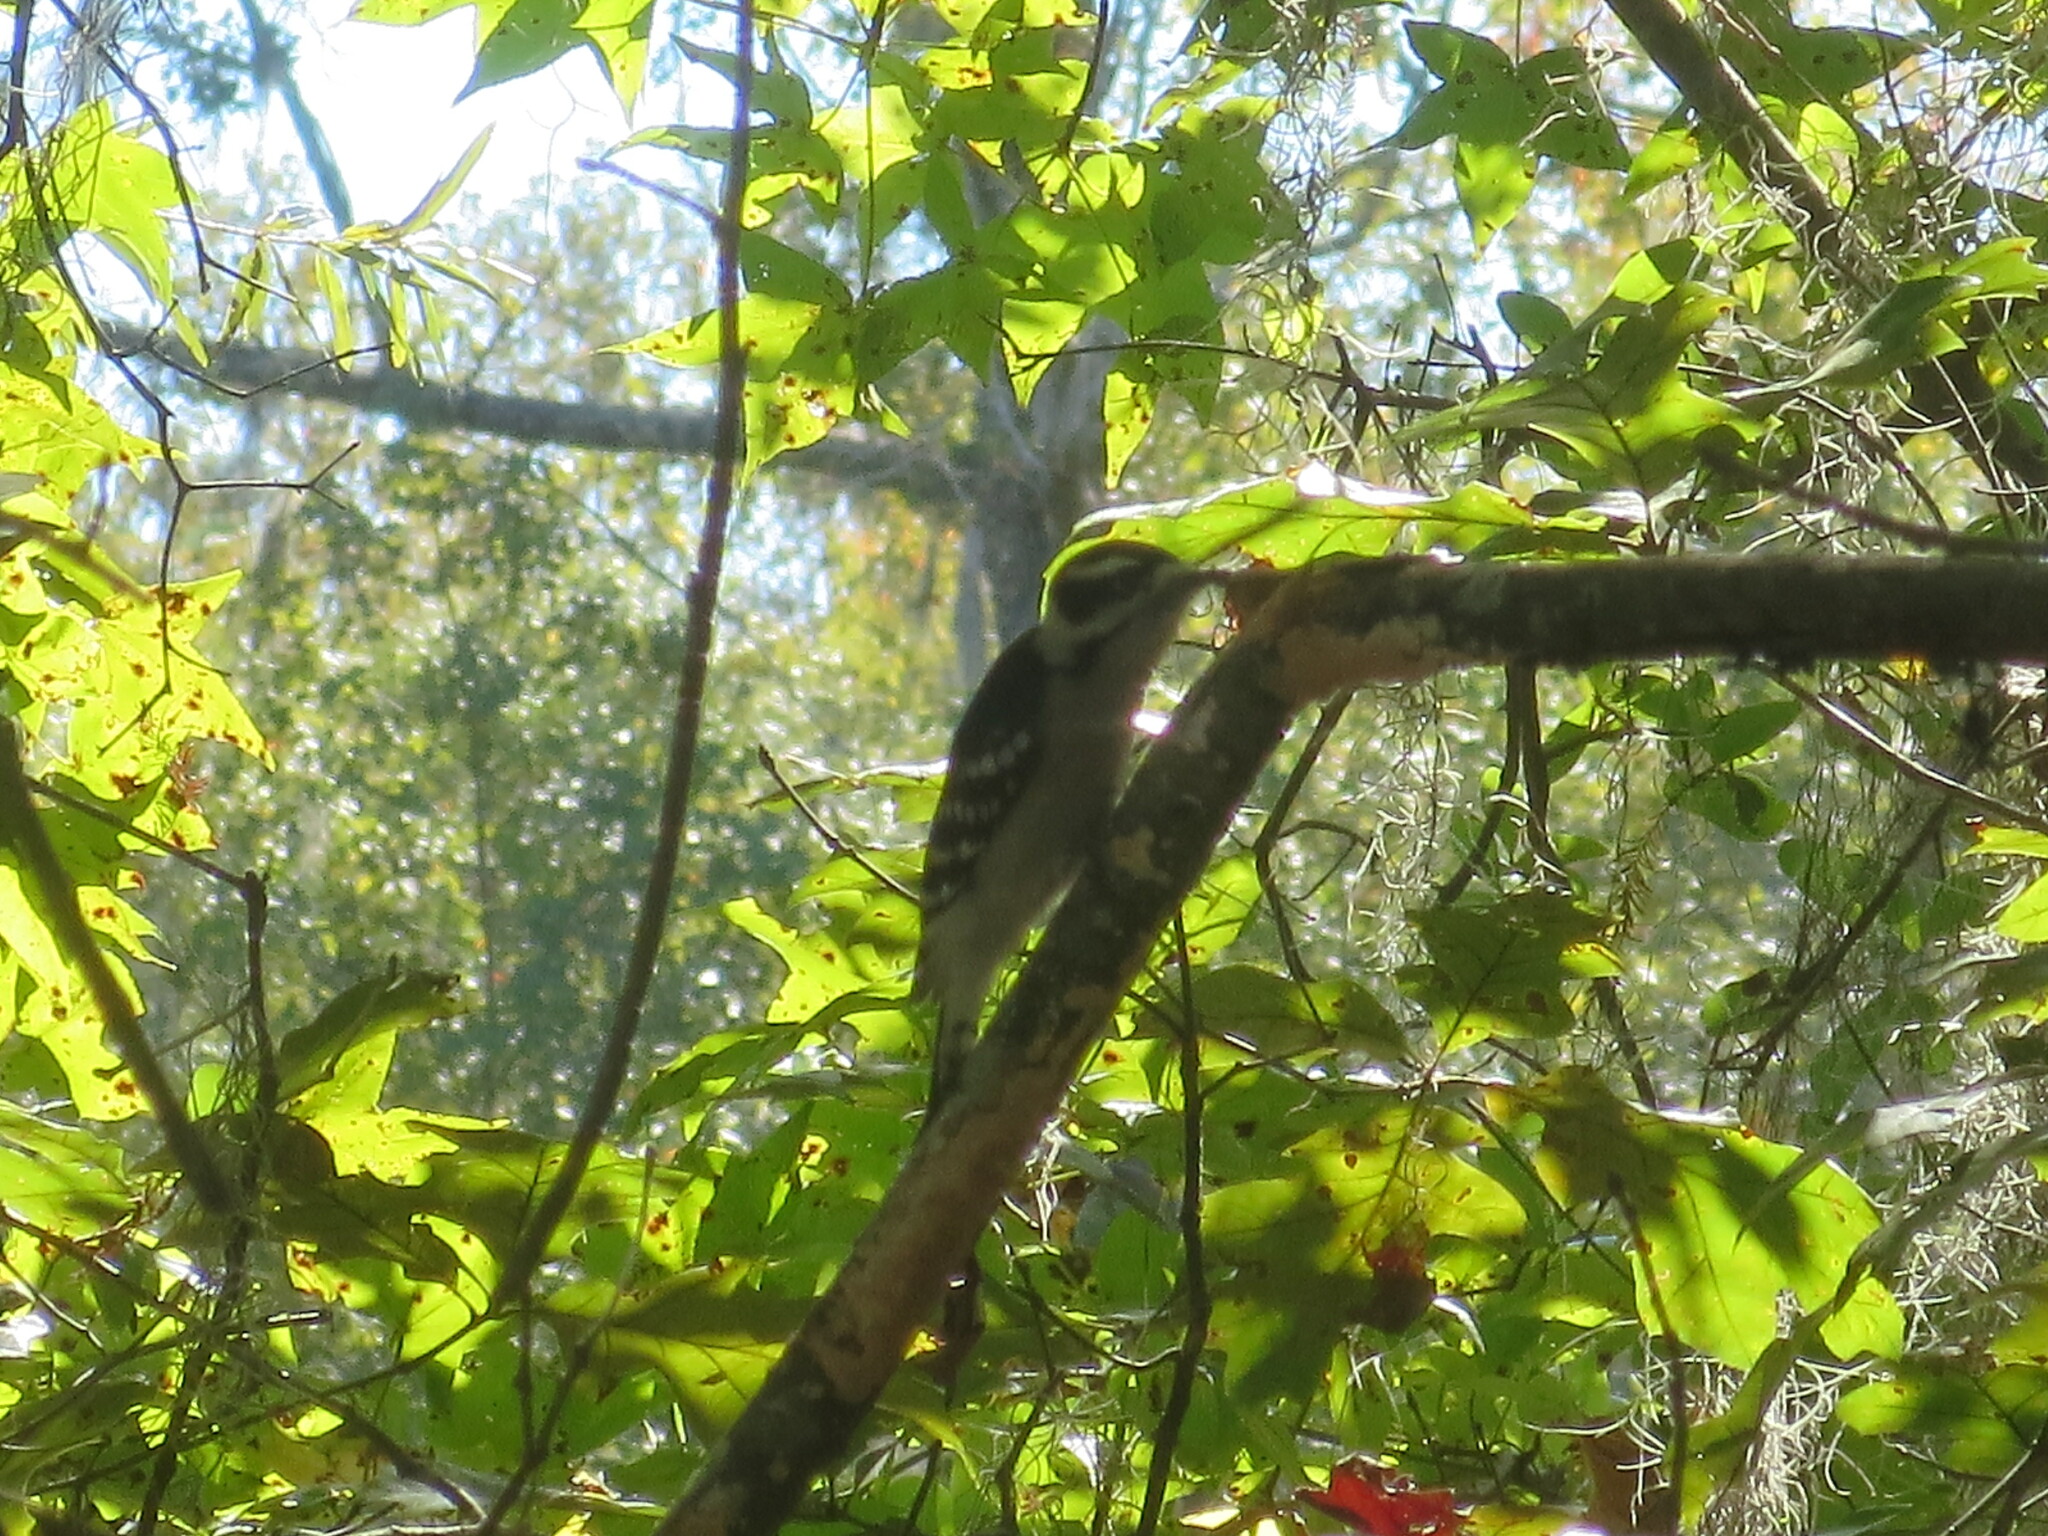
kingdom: Animalia
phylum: Chordata
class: Aves
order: Piciformes
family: Picidae
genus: Dryobates
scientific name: Dryobates pubescens
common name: Downy woodpecker
